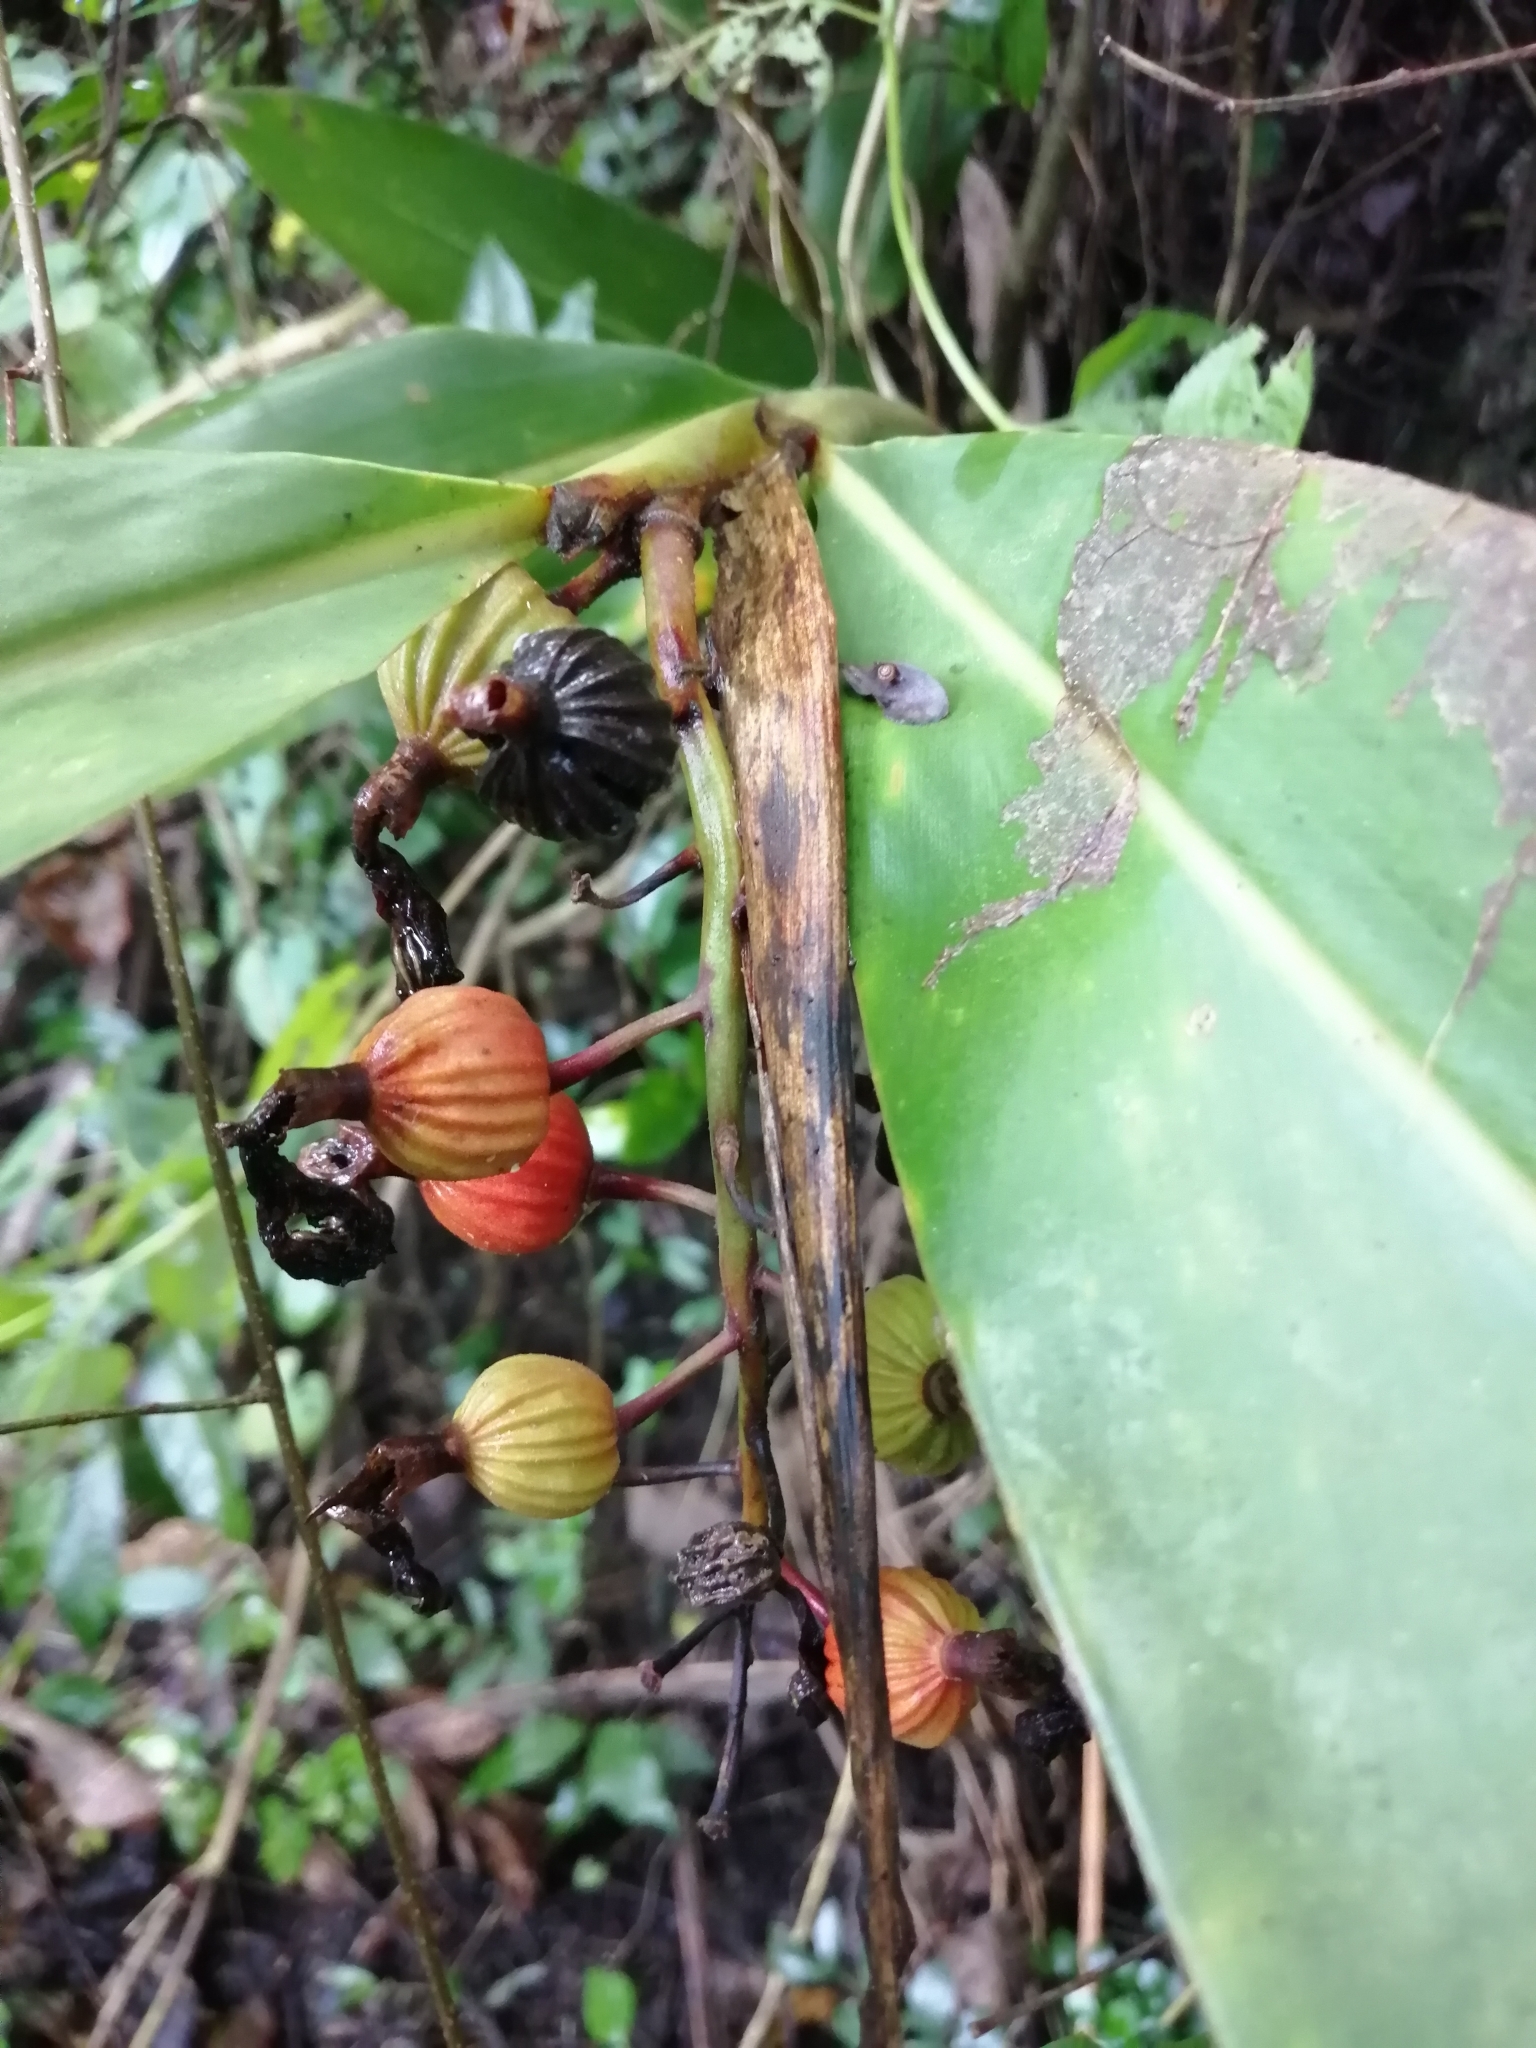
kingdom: Plantae
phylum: Tracheophyta
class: Liliopsida
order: Zingiberales
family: Zingiberaceae
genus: Alpinia
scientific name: Alpinia zerumbet
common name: Shellplant
